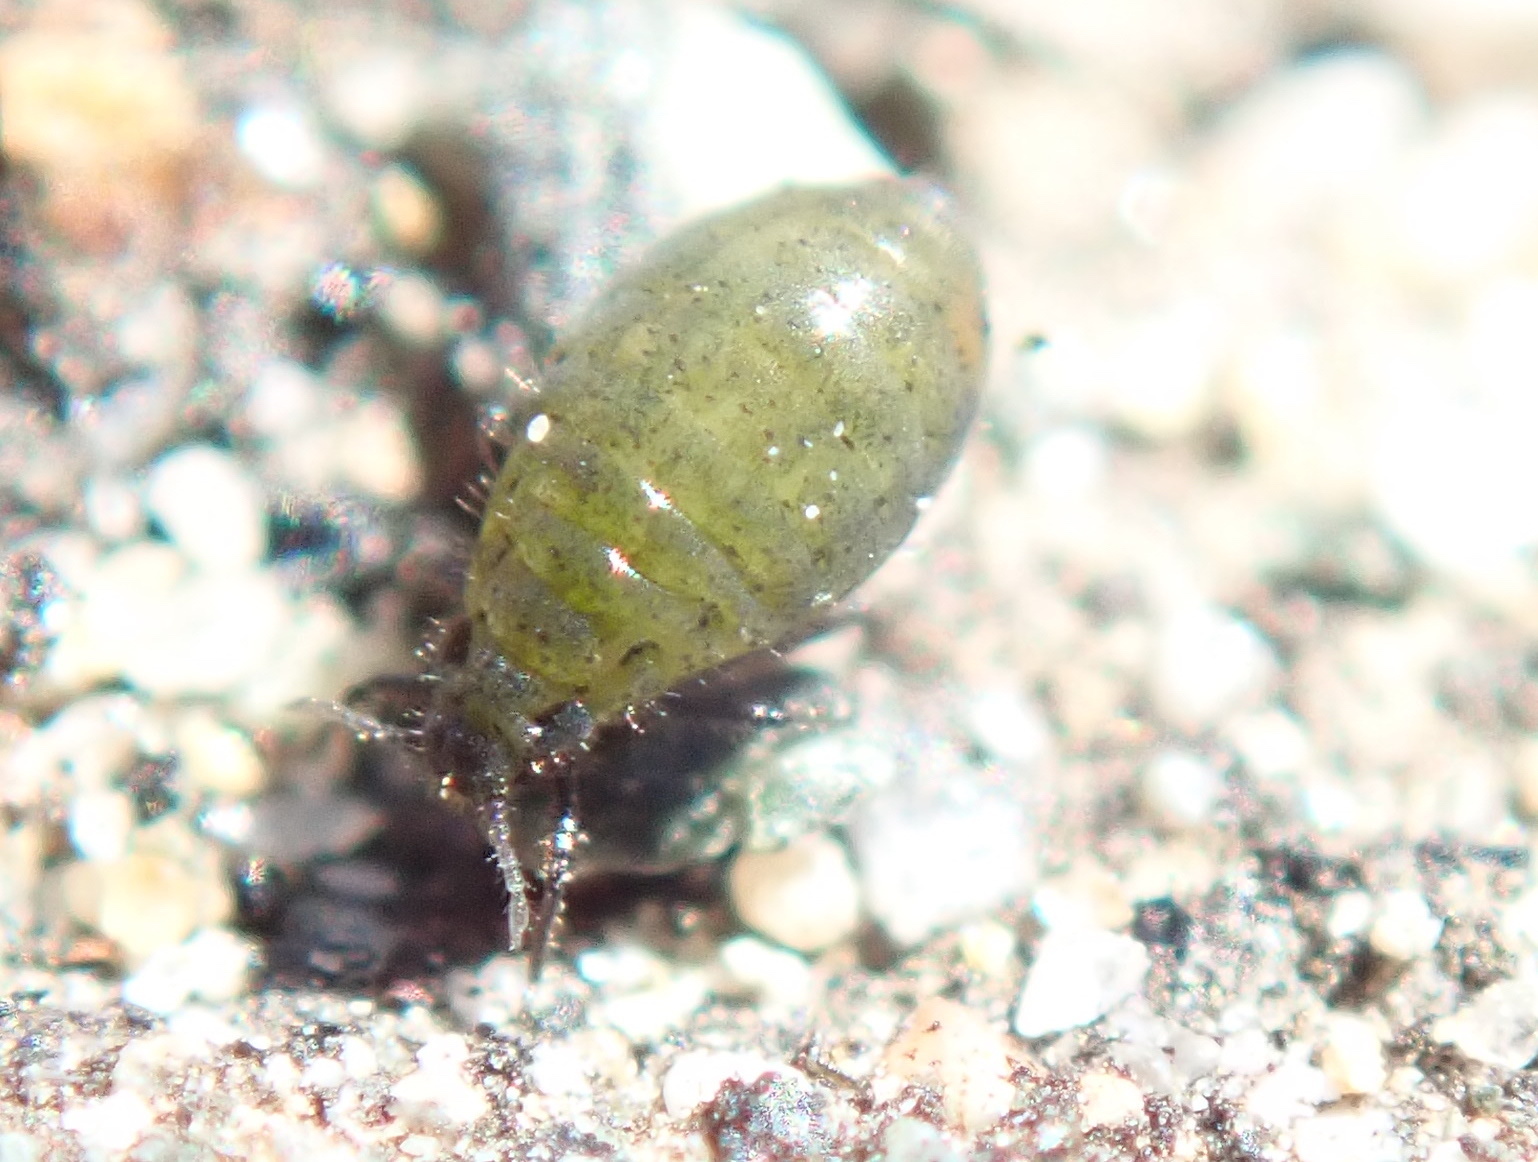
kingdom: Animalia
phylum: Arthropoda
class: Insecta
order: Hemiptera
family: Aphididae
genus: Tamalia
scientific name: Tamalia coweni
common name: Manzanita leafgall aphid
